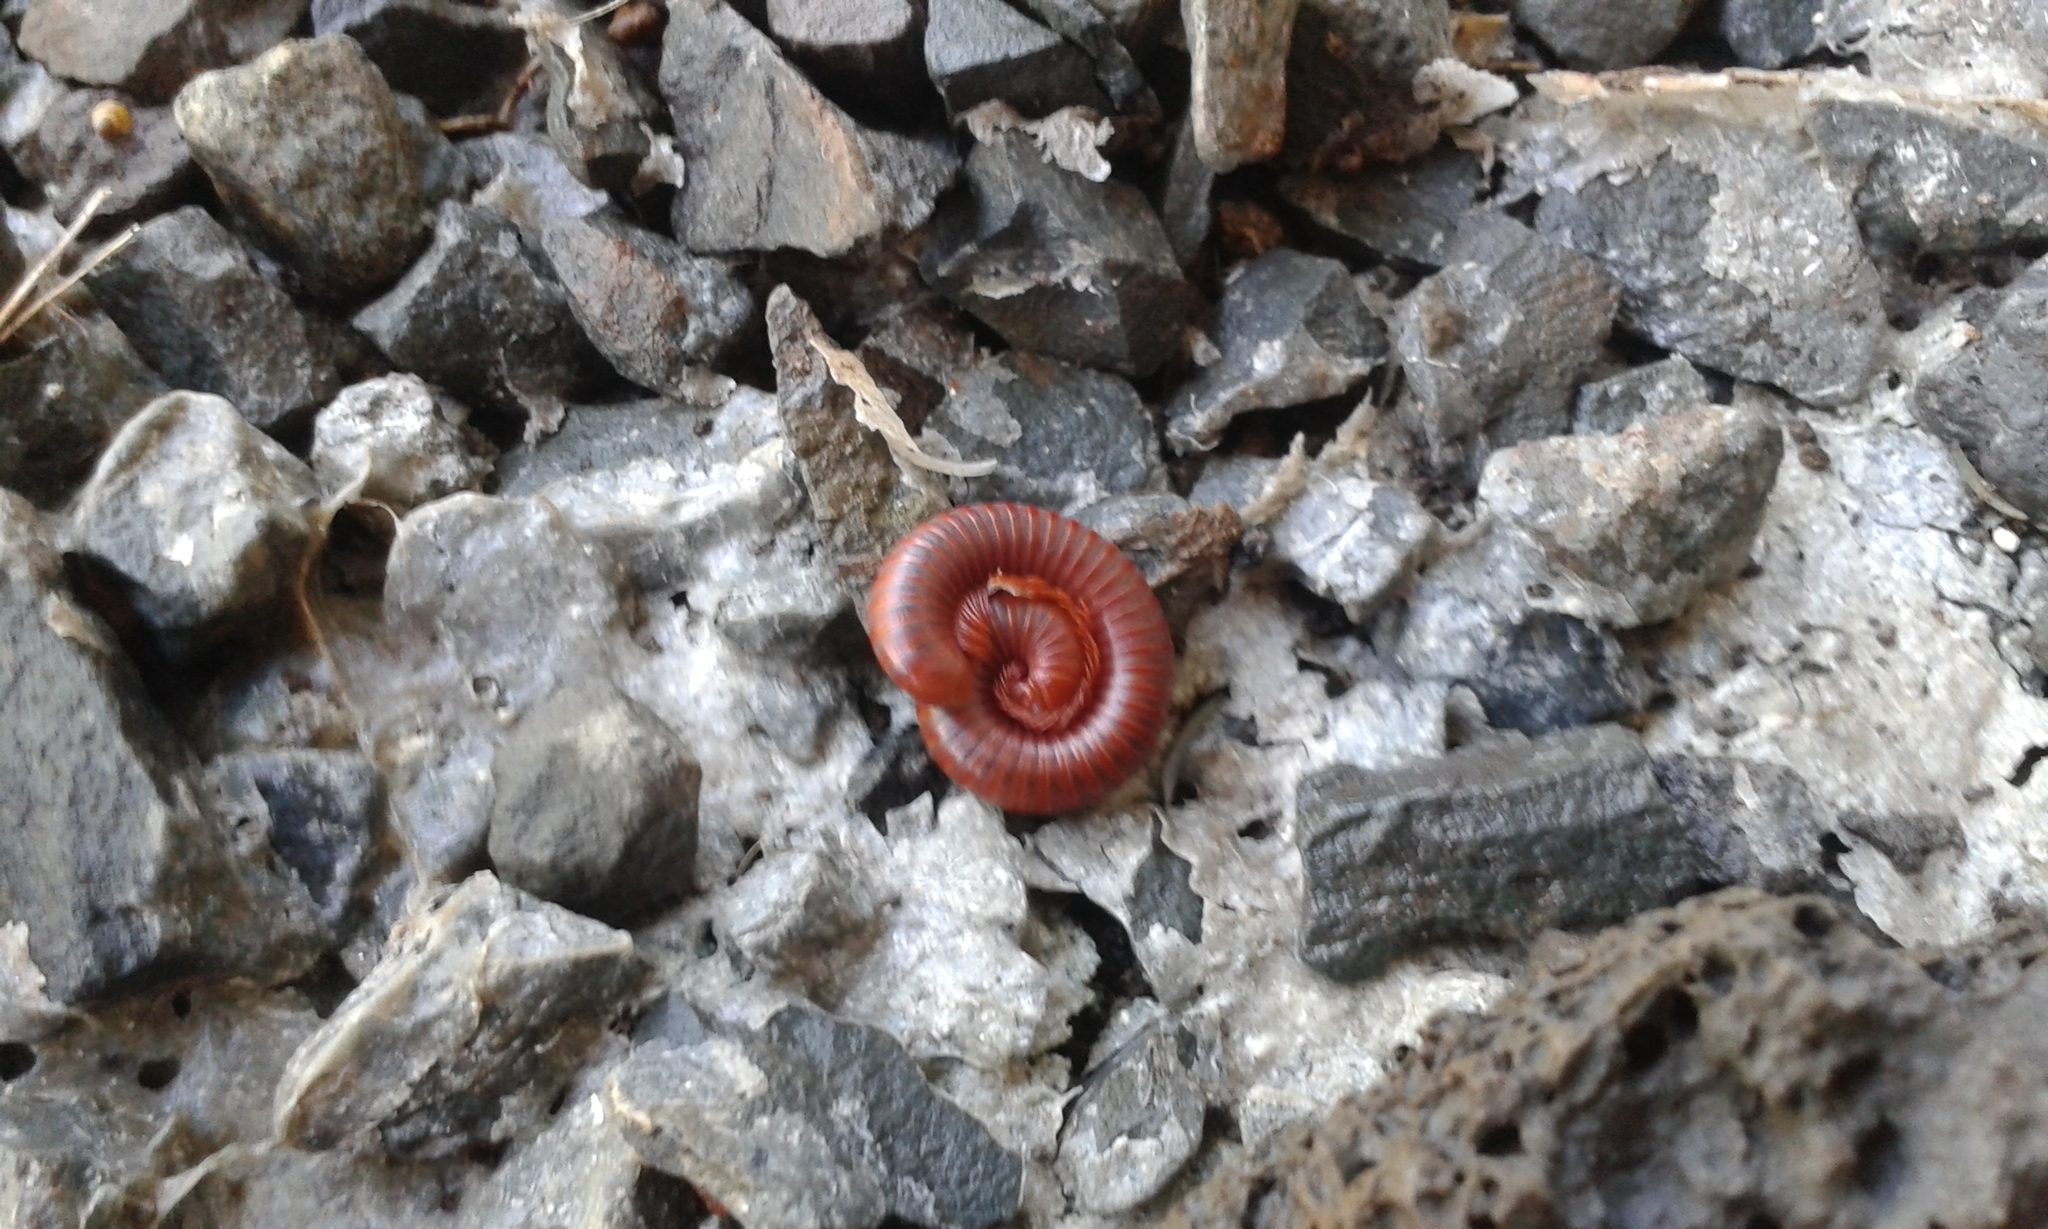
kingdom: Animalia
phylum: Arthropoda
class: Diplopoda
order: Spirobolida
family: Pachybolidae
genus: Trigoniulus
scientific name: Trigoniulus corallinus
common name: Millipede
